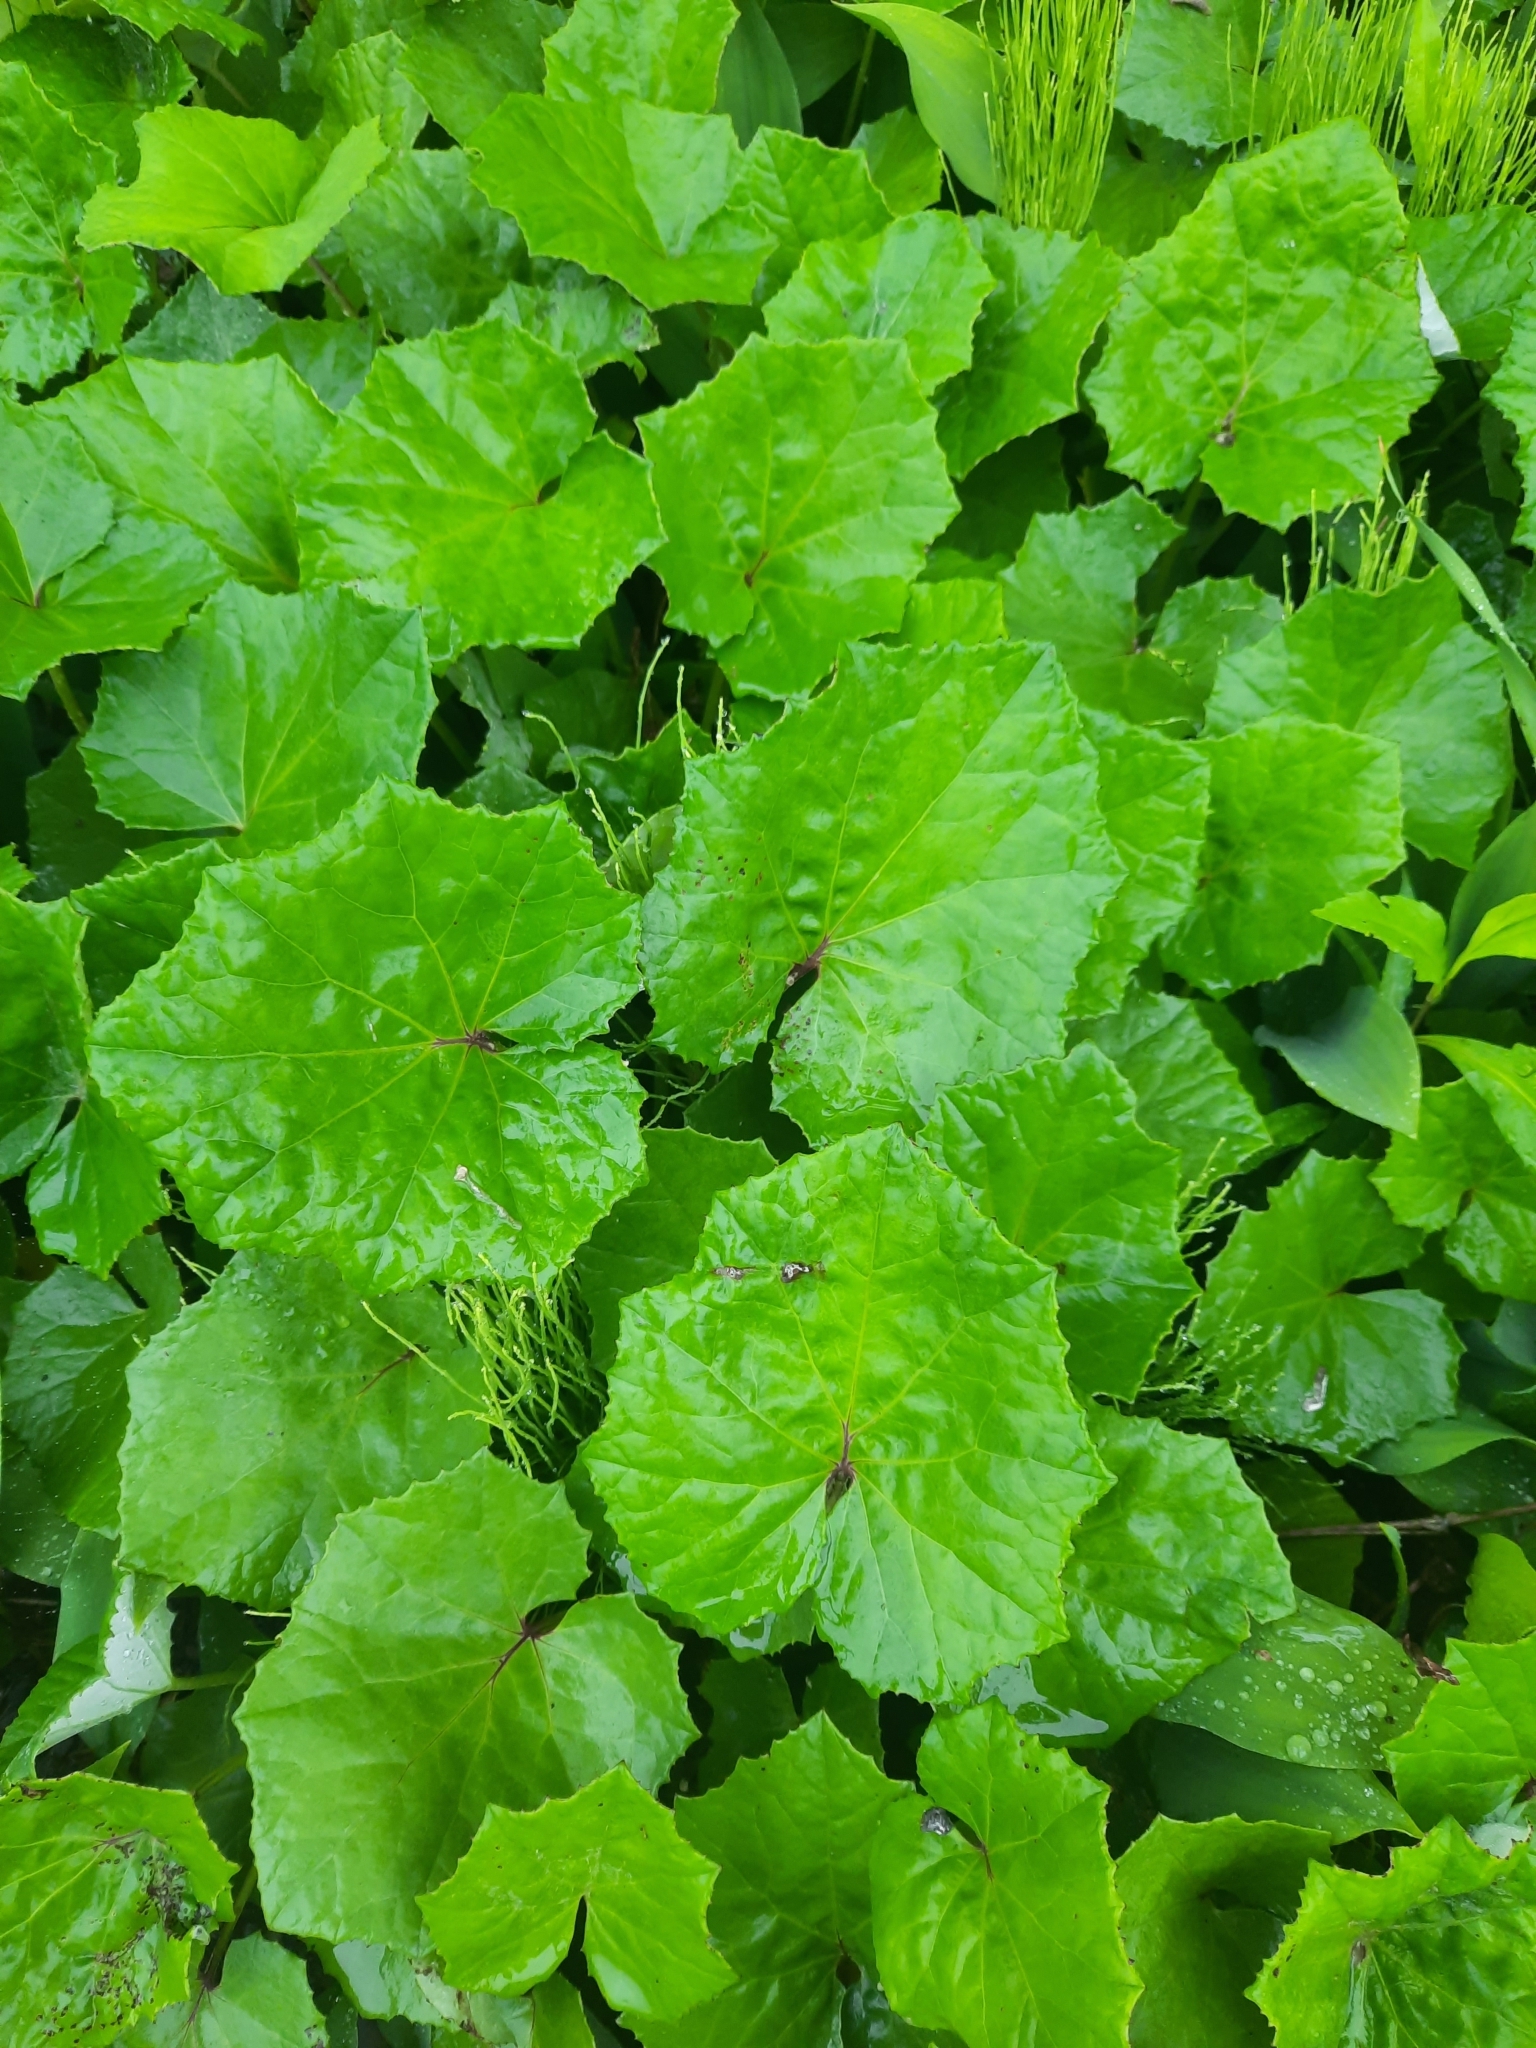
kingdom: Plantae
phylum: Tracheophyta
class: Magnoliopsida
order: Asterales
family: Asteraceae
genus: Tussilago
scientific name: Tussilago farfara
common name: Coltsfoot
